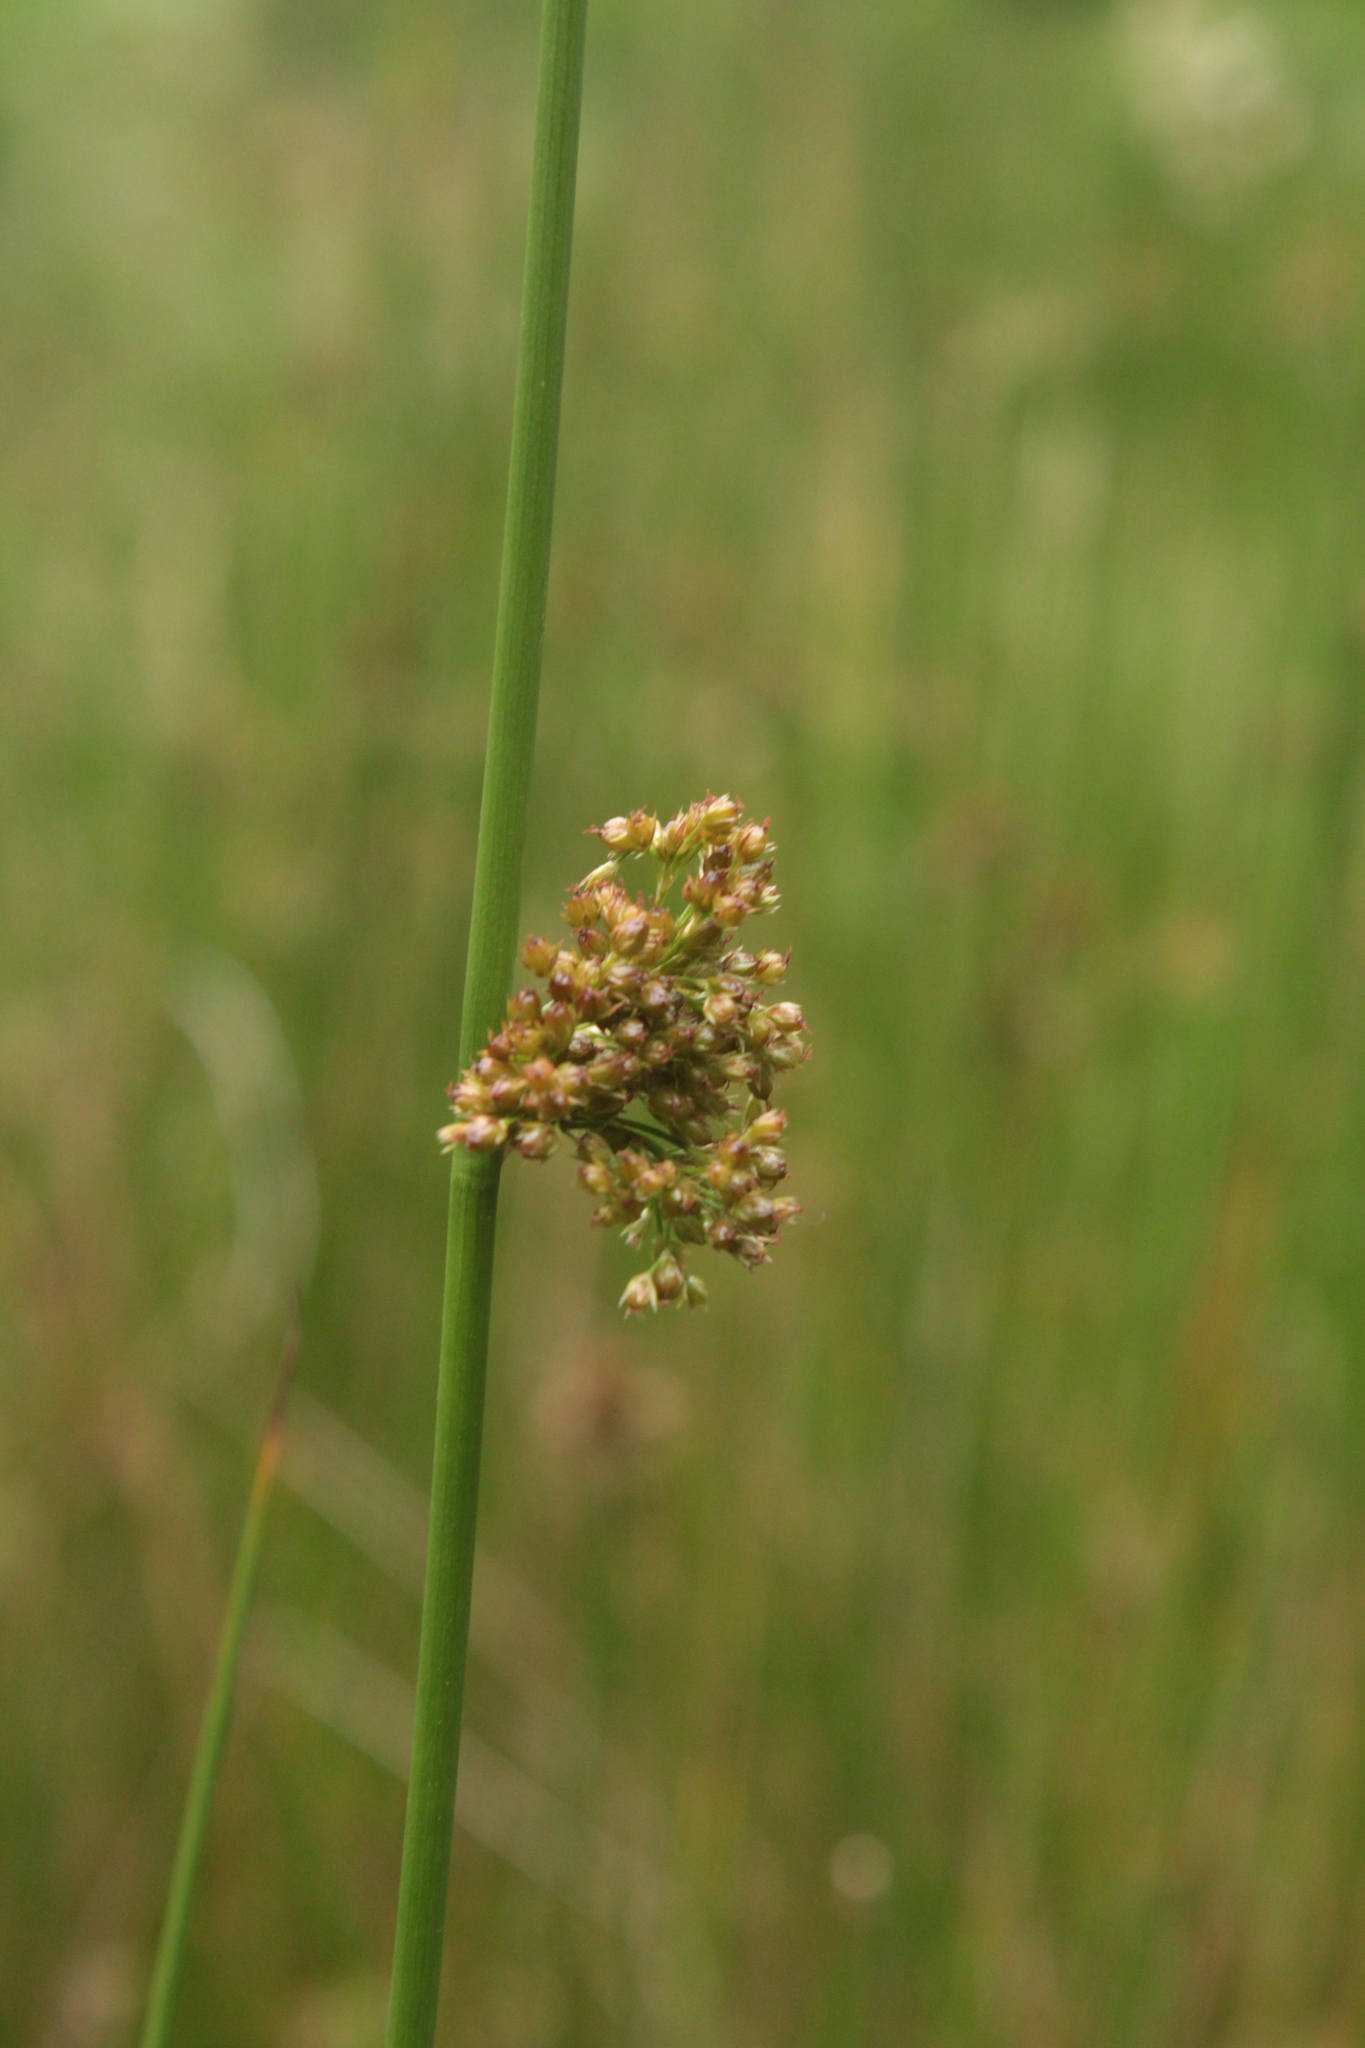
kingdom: Plantae
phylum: Tracheophyta
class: Liliopsida
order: Poales
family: Juncaceae
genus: Juncus
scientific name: Juncus effusus
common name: Soft rush
